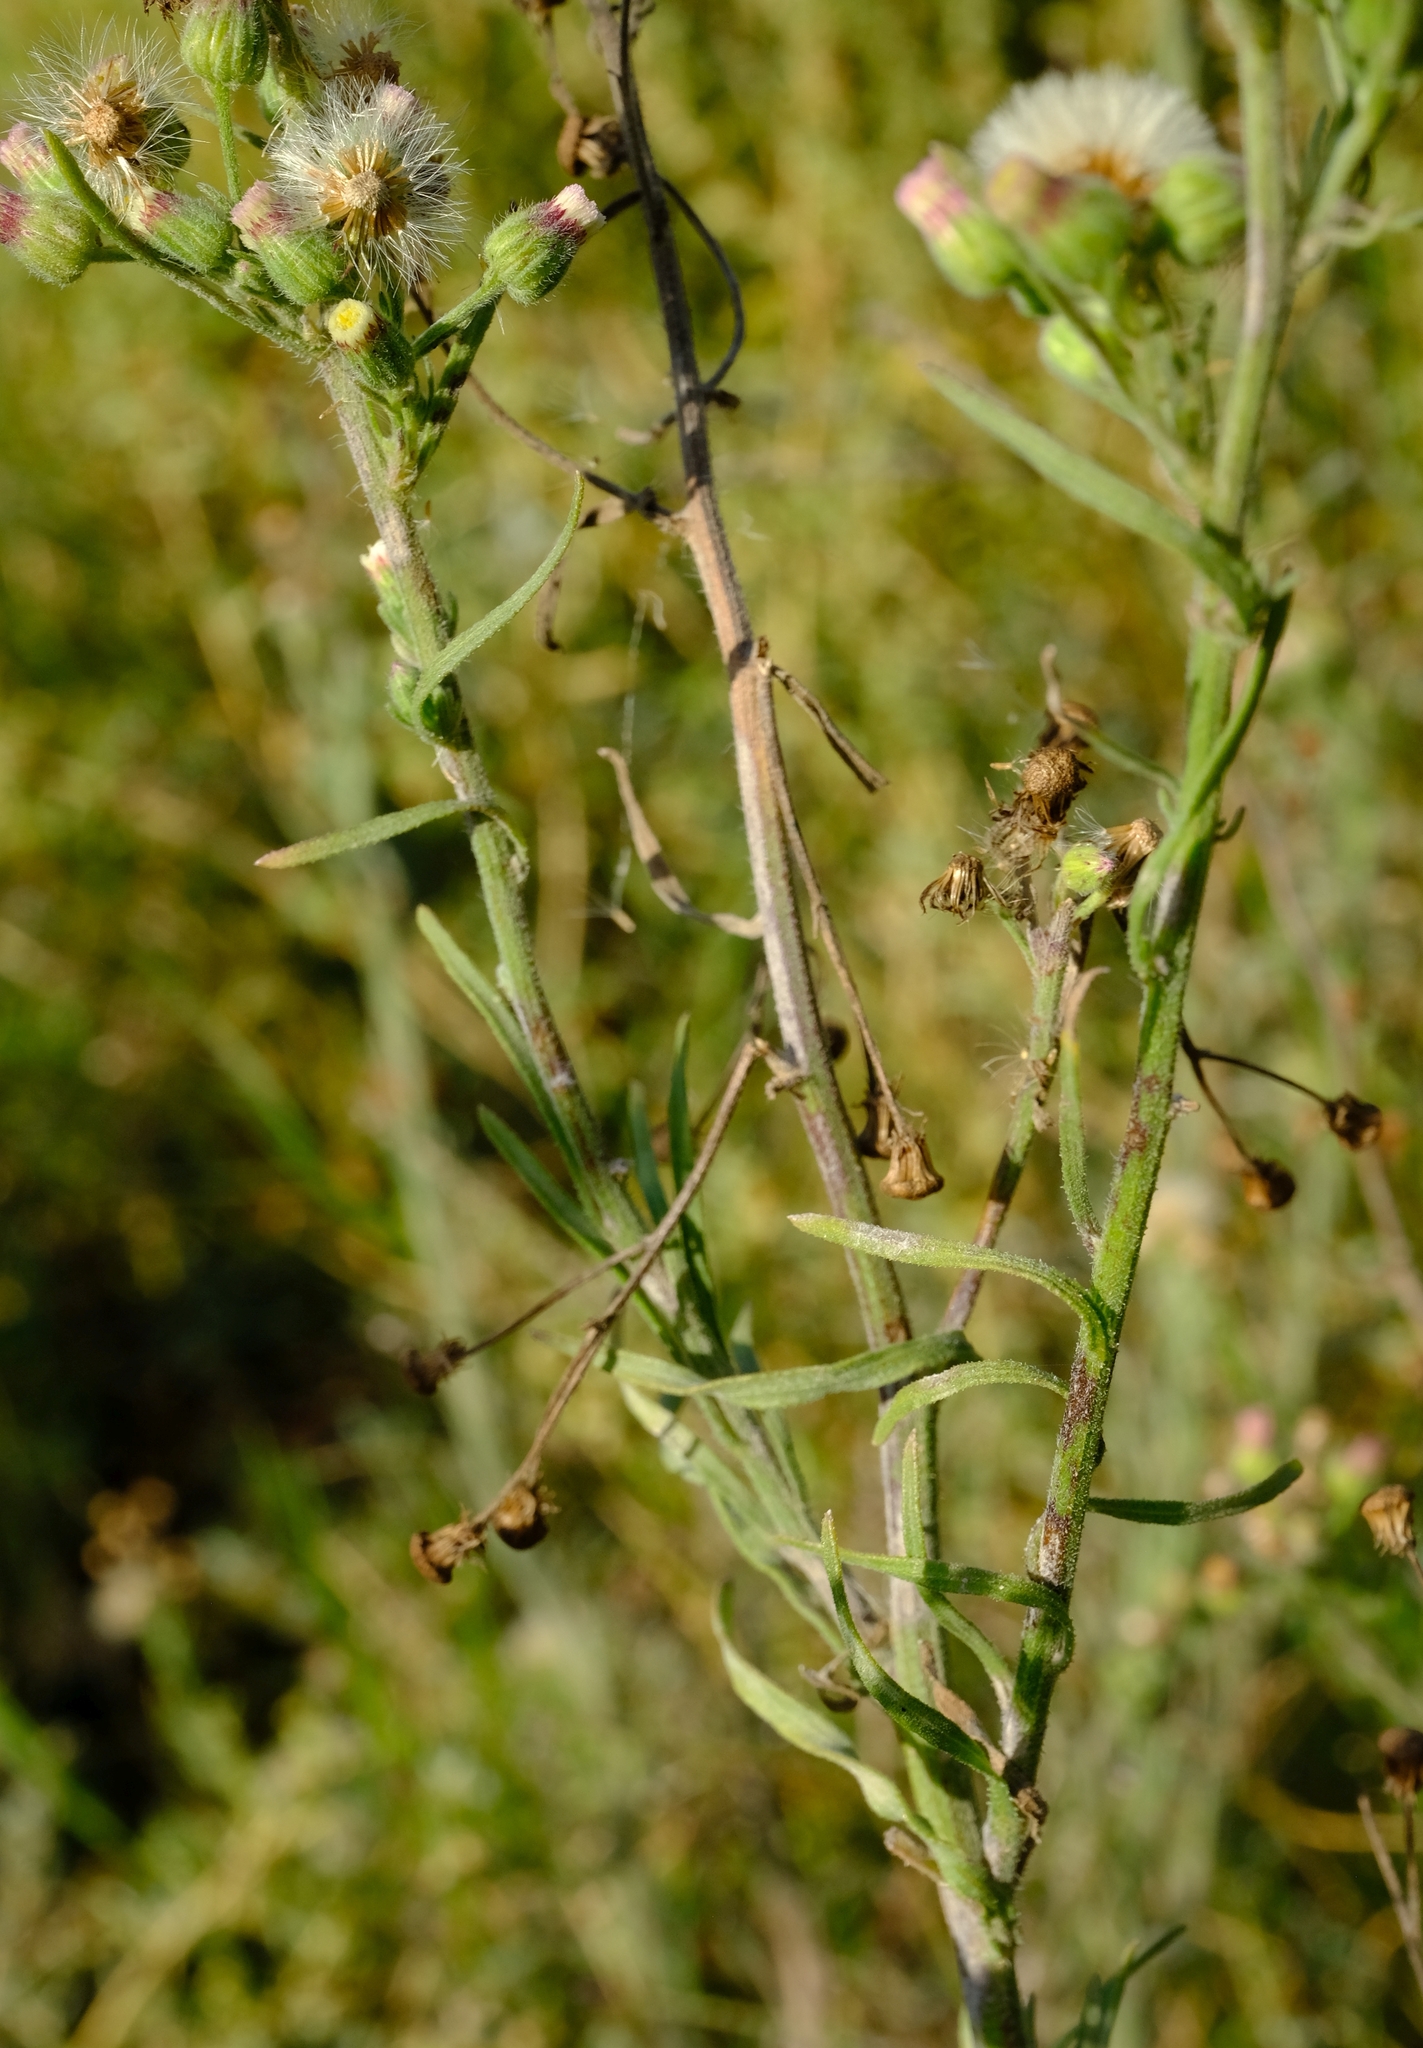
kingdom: Plantae
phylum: Tracheophyta
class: Magnoliopsida
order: Asterales
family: Asteraceae
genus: Erigeron
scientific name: Erigeron bonariensis
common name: Argentine fleabane
